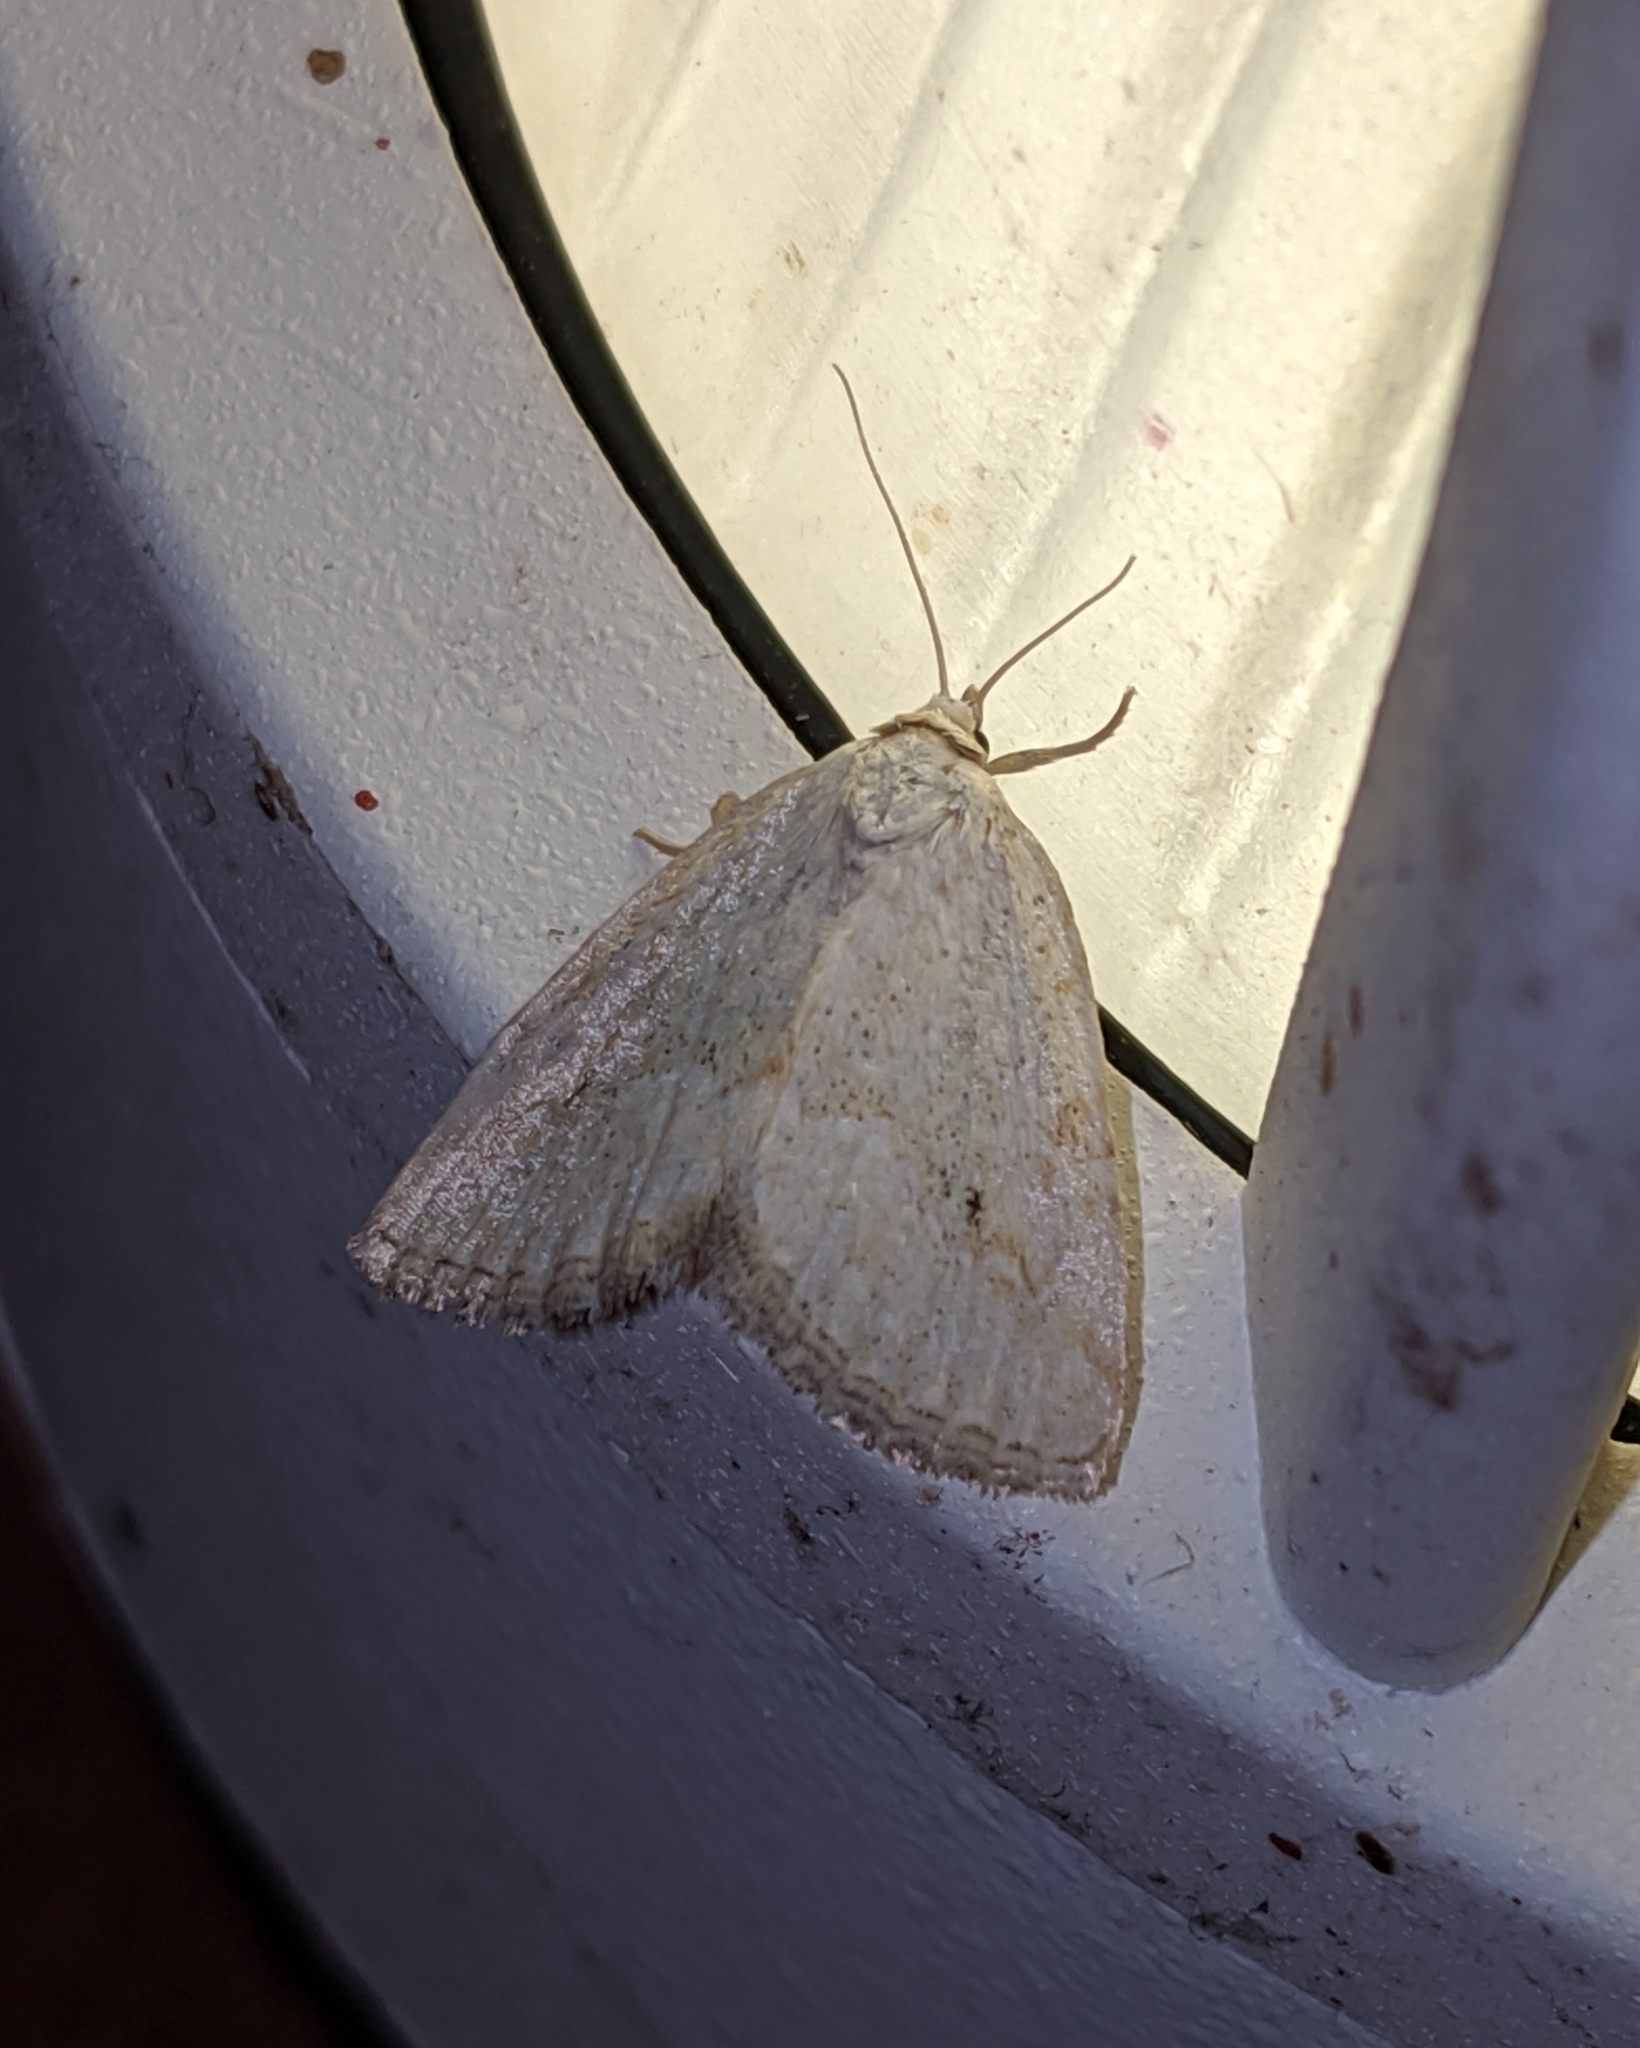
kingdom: Animalia
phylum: Arthropoda
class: Insecta
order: Lepidoptera
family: Noctuidae
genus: Protodeltote
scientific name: Protodeltote albidula
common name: Pale glyph
